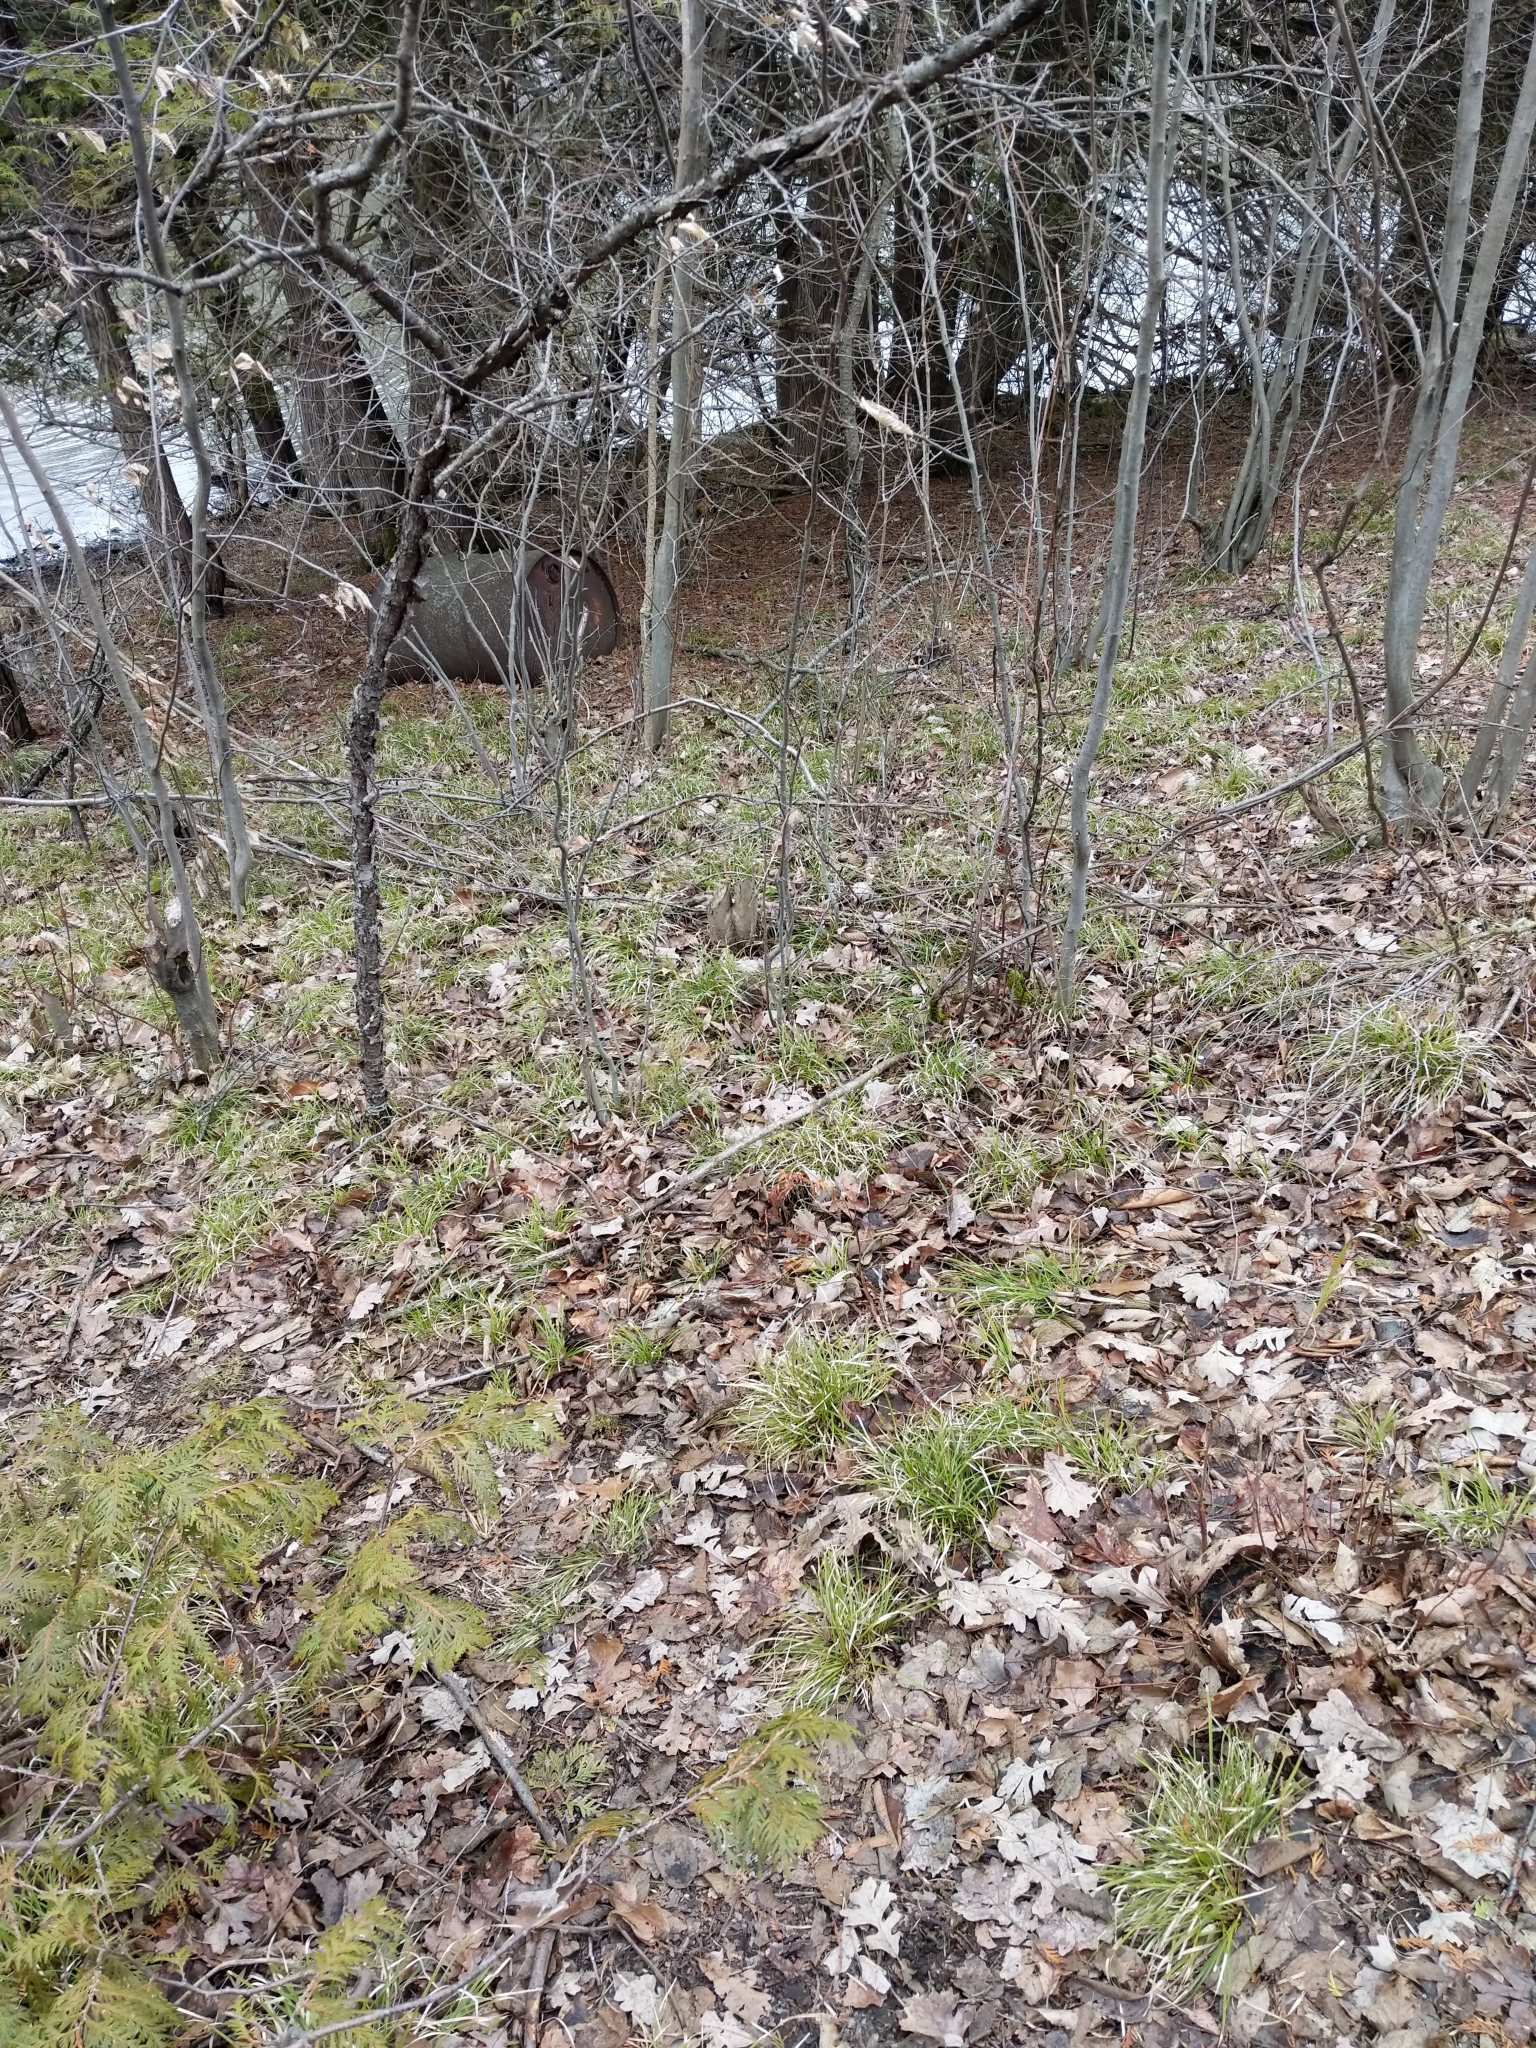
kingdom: Plantae
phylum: Tracheophyta
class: Liliopsida
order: Poales
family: Cyperaceae
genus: Carex
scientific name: Carex pedunculata
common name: Pedunculate sedge
